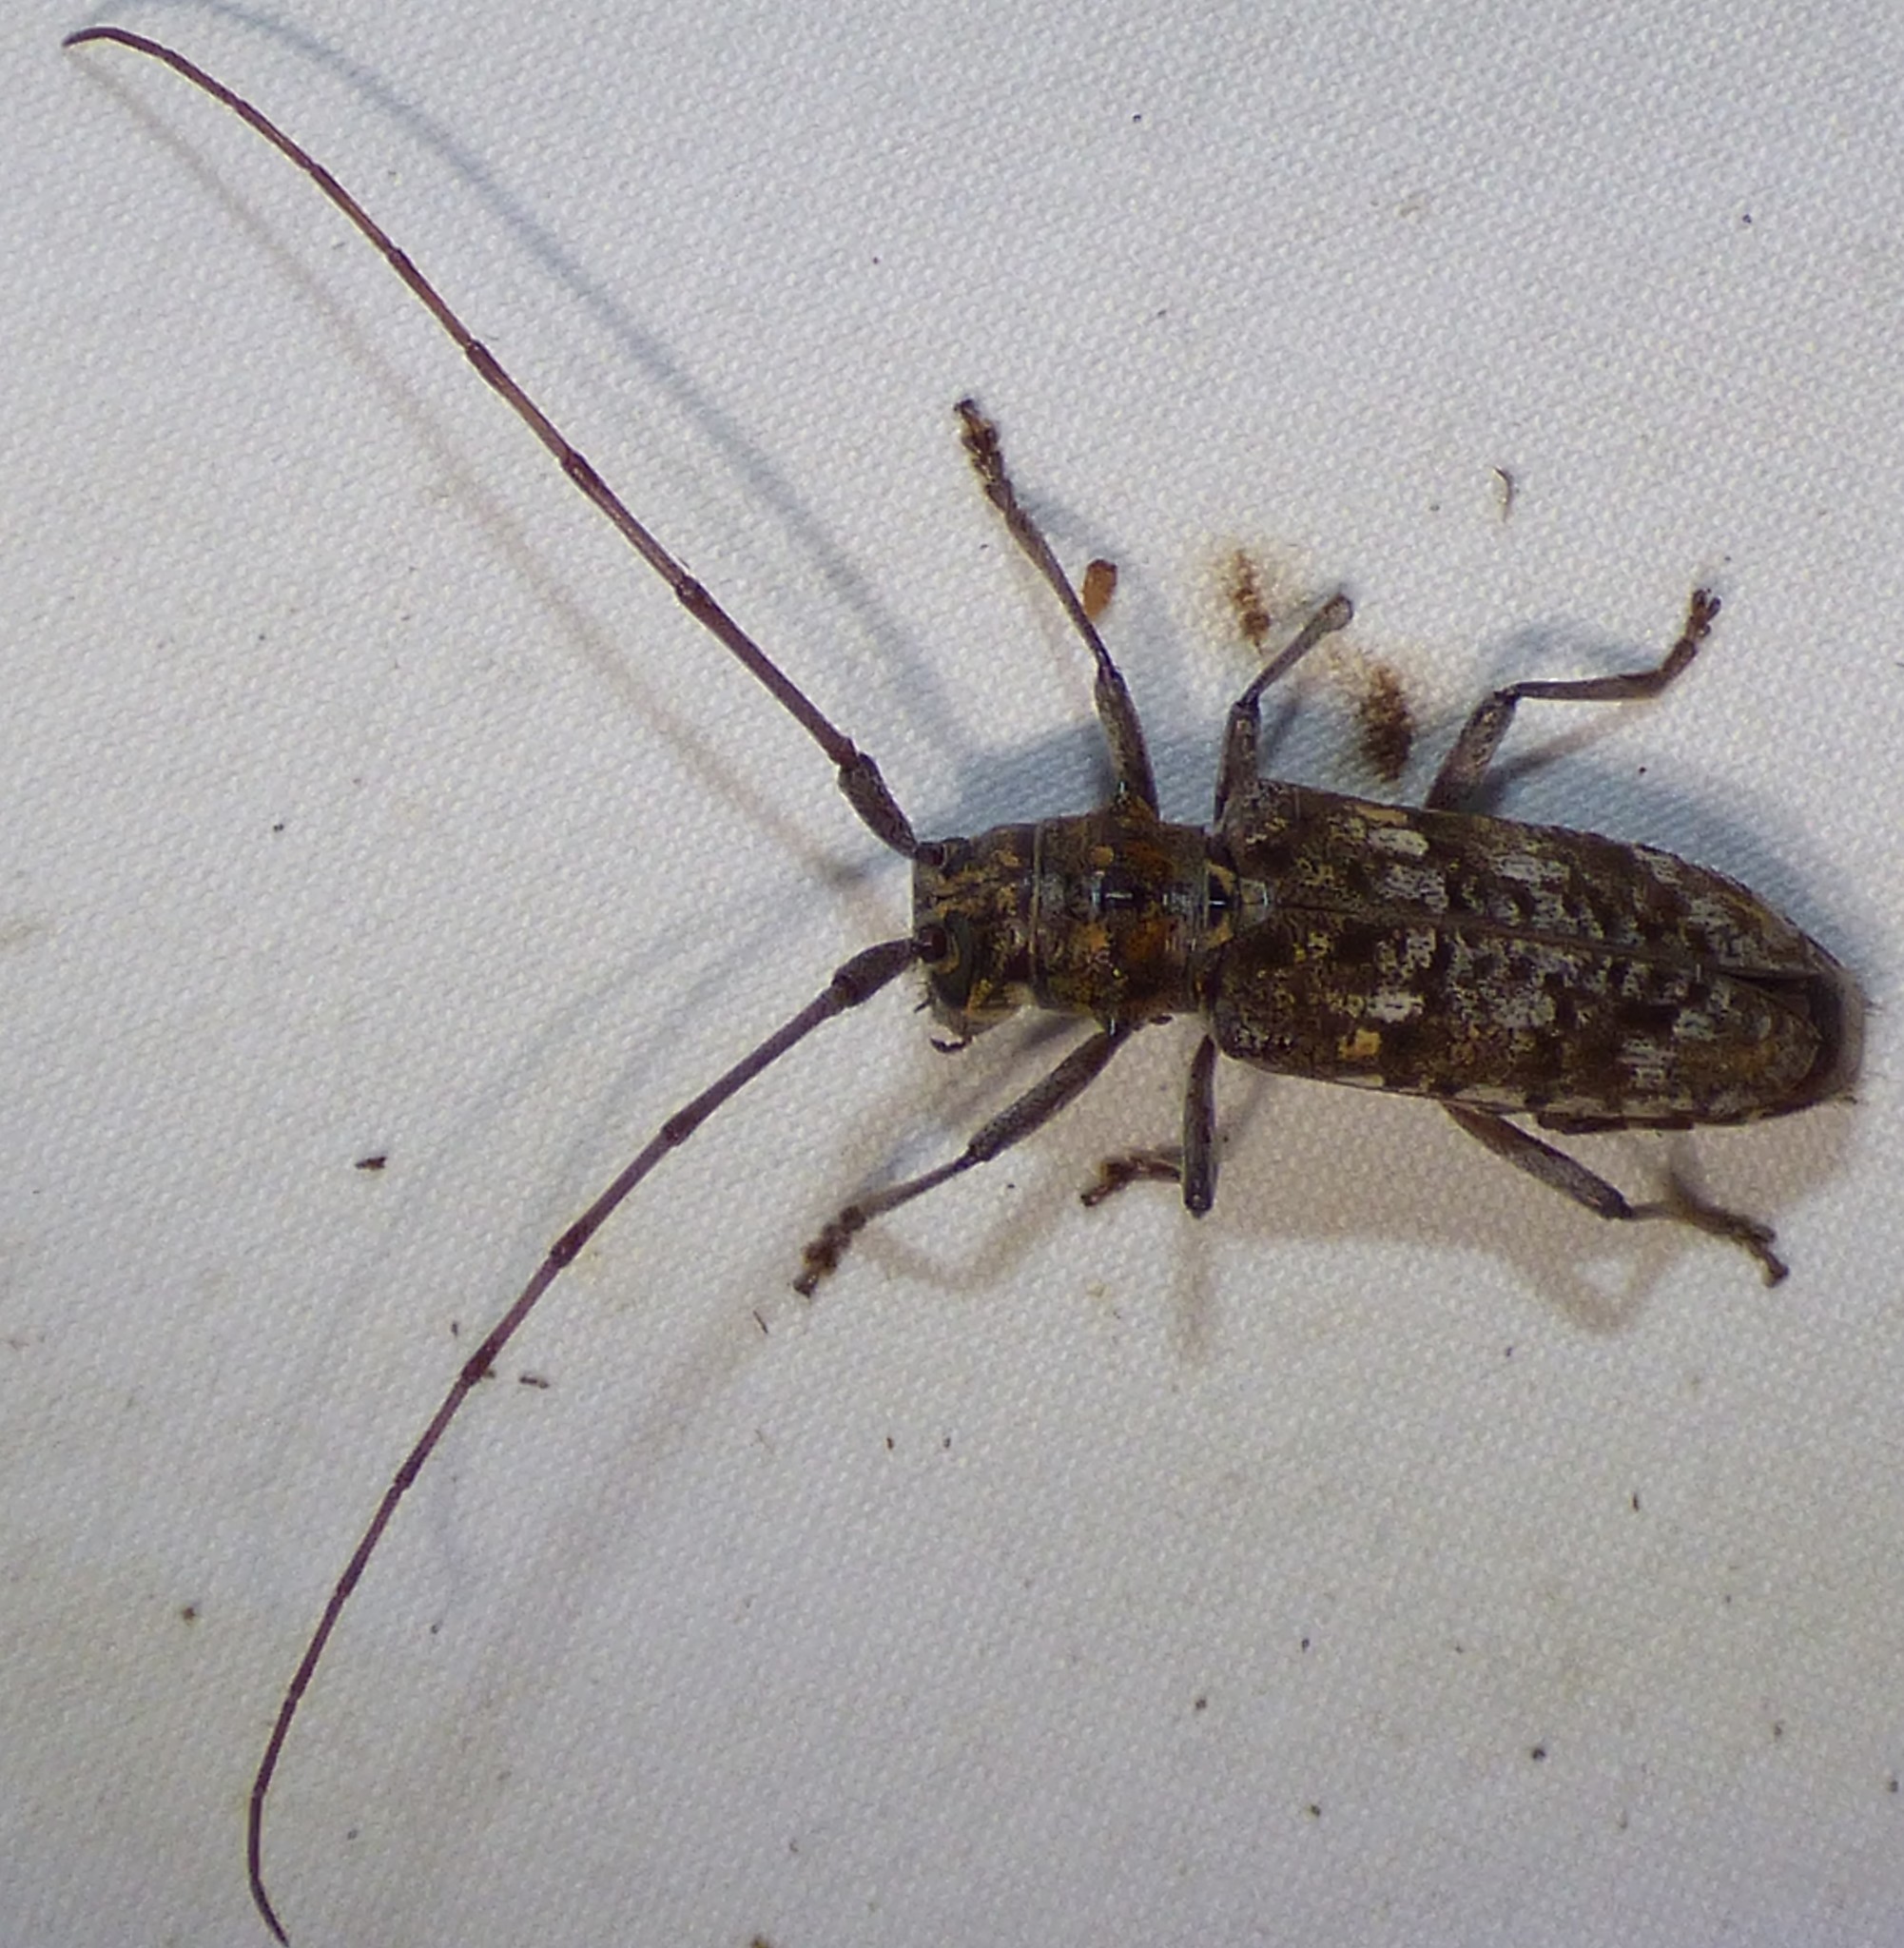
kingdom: Animalia
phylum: Arthropoda
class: Insecta
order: Coleoptera
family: Cerambycidae
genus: Monochamus
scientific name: Monochamus titillator
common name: Southern pine sawyer
